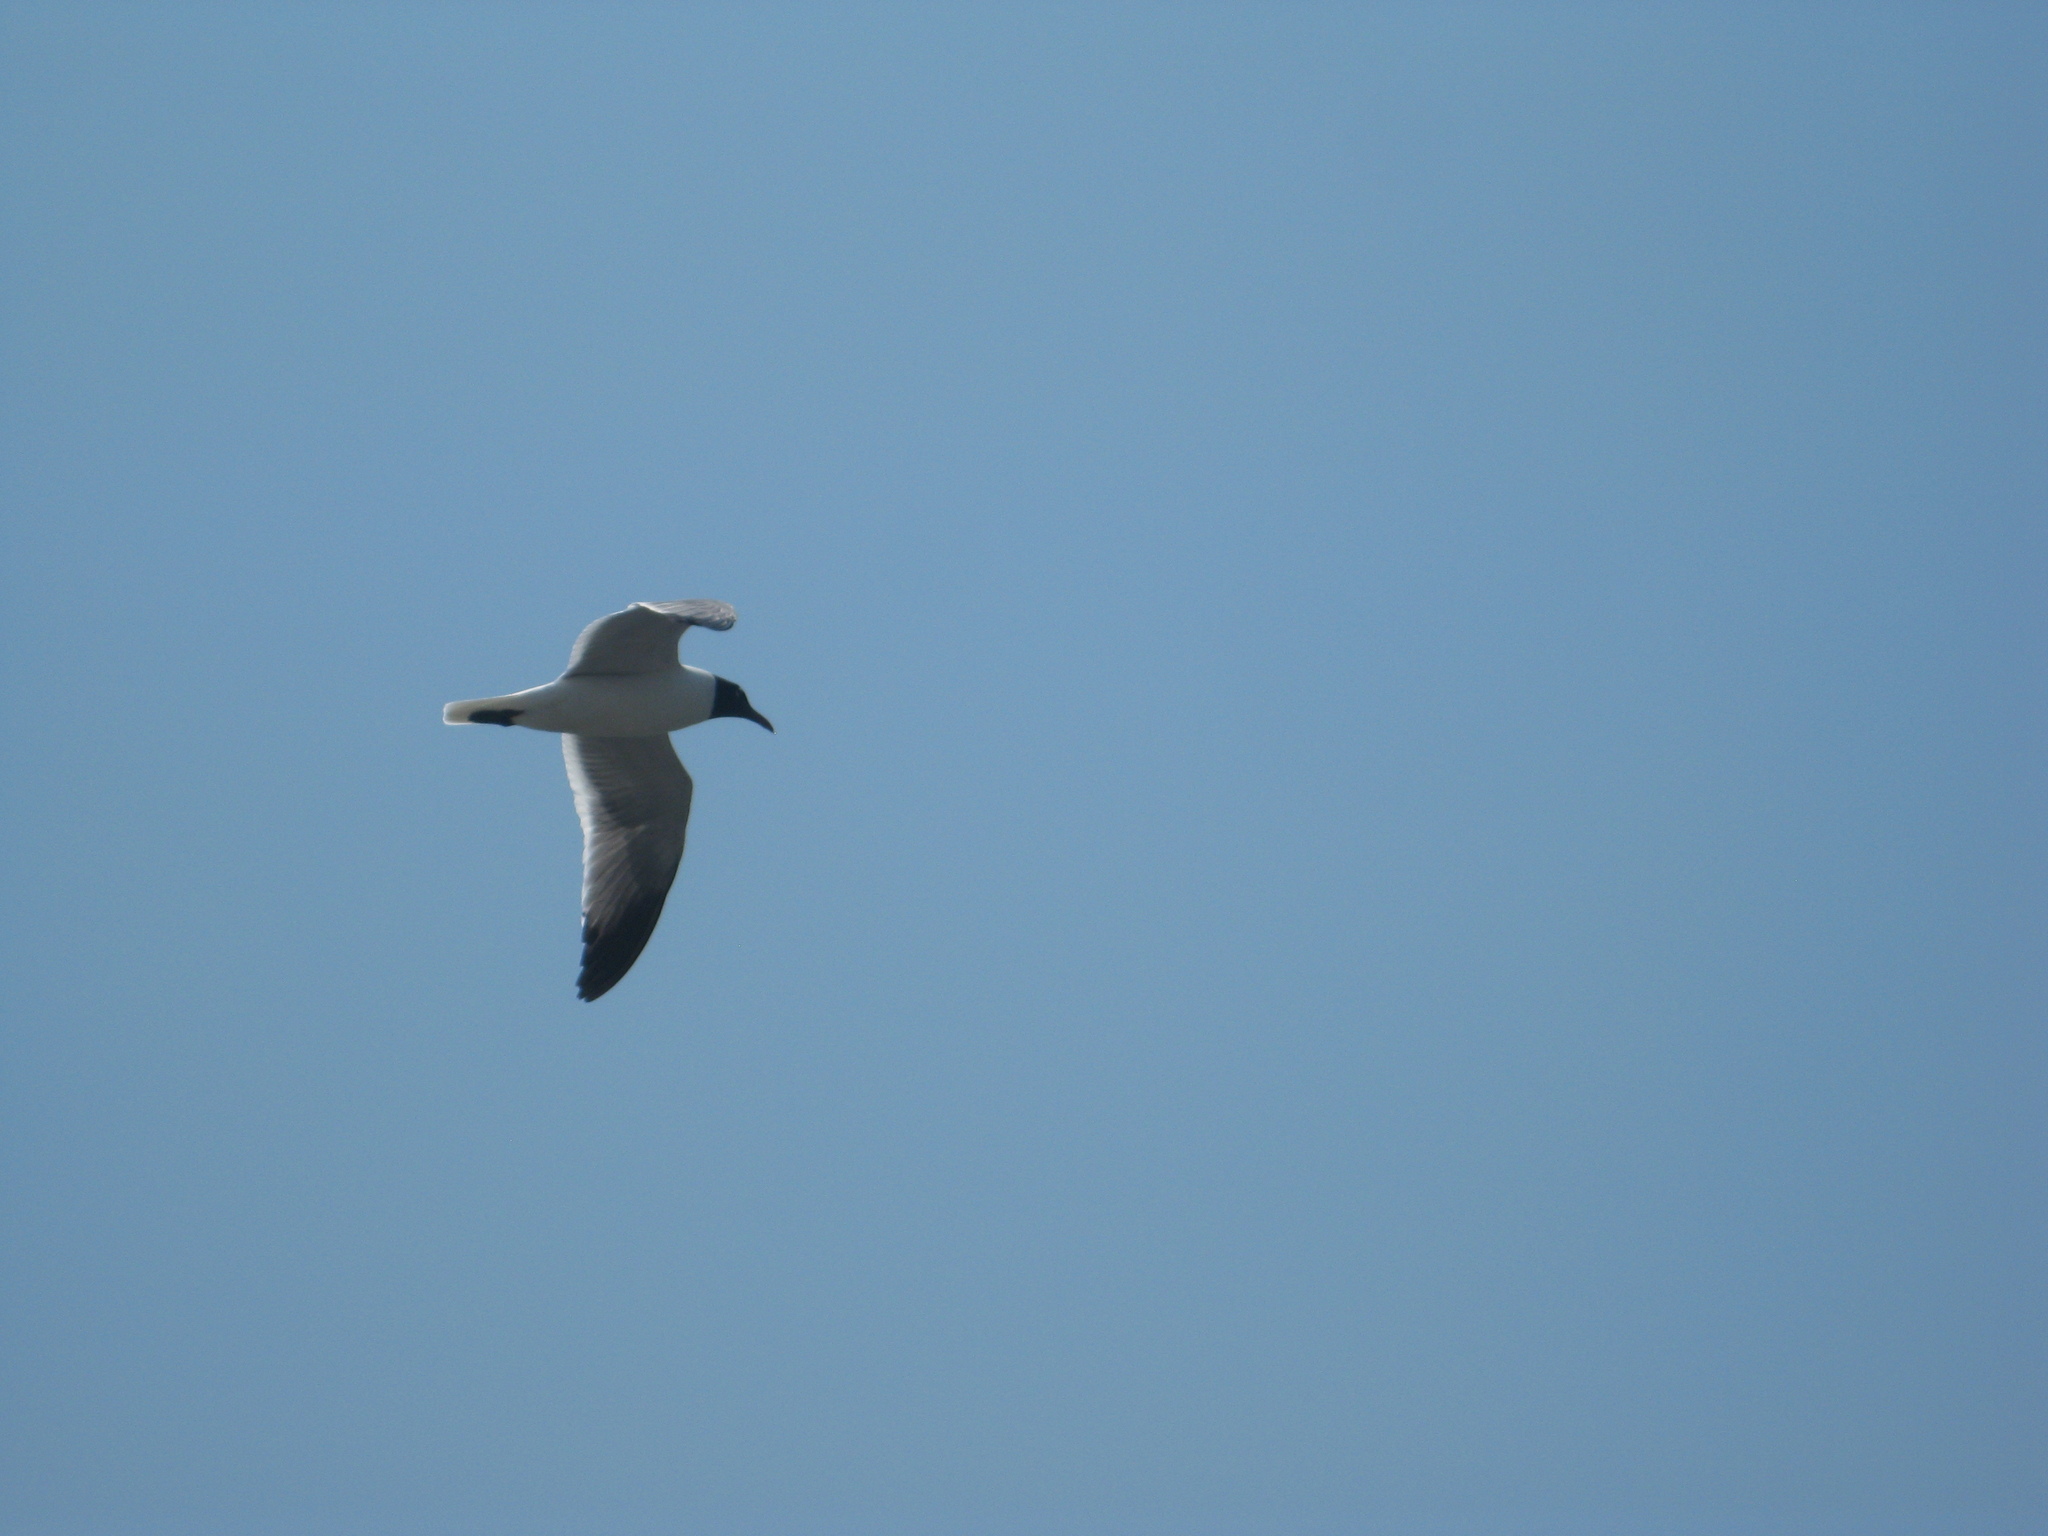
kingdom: Animalia
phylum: Chordata
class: Aves
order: Charadriiformes
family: Laridae
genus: Leucophaeus
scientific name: Leucophaeus atricilla
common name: Laughing gull
